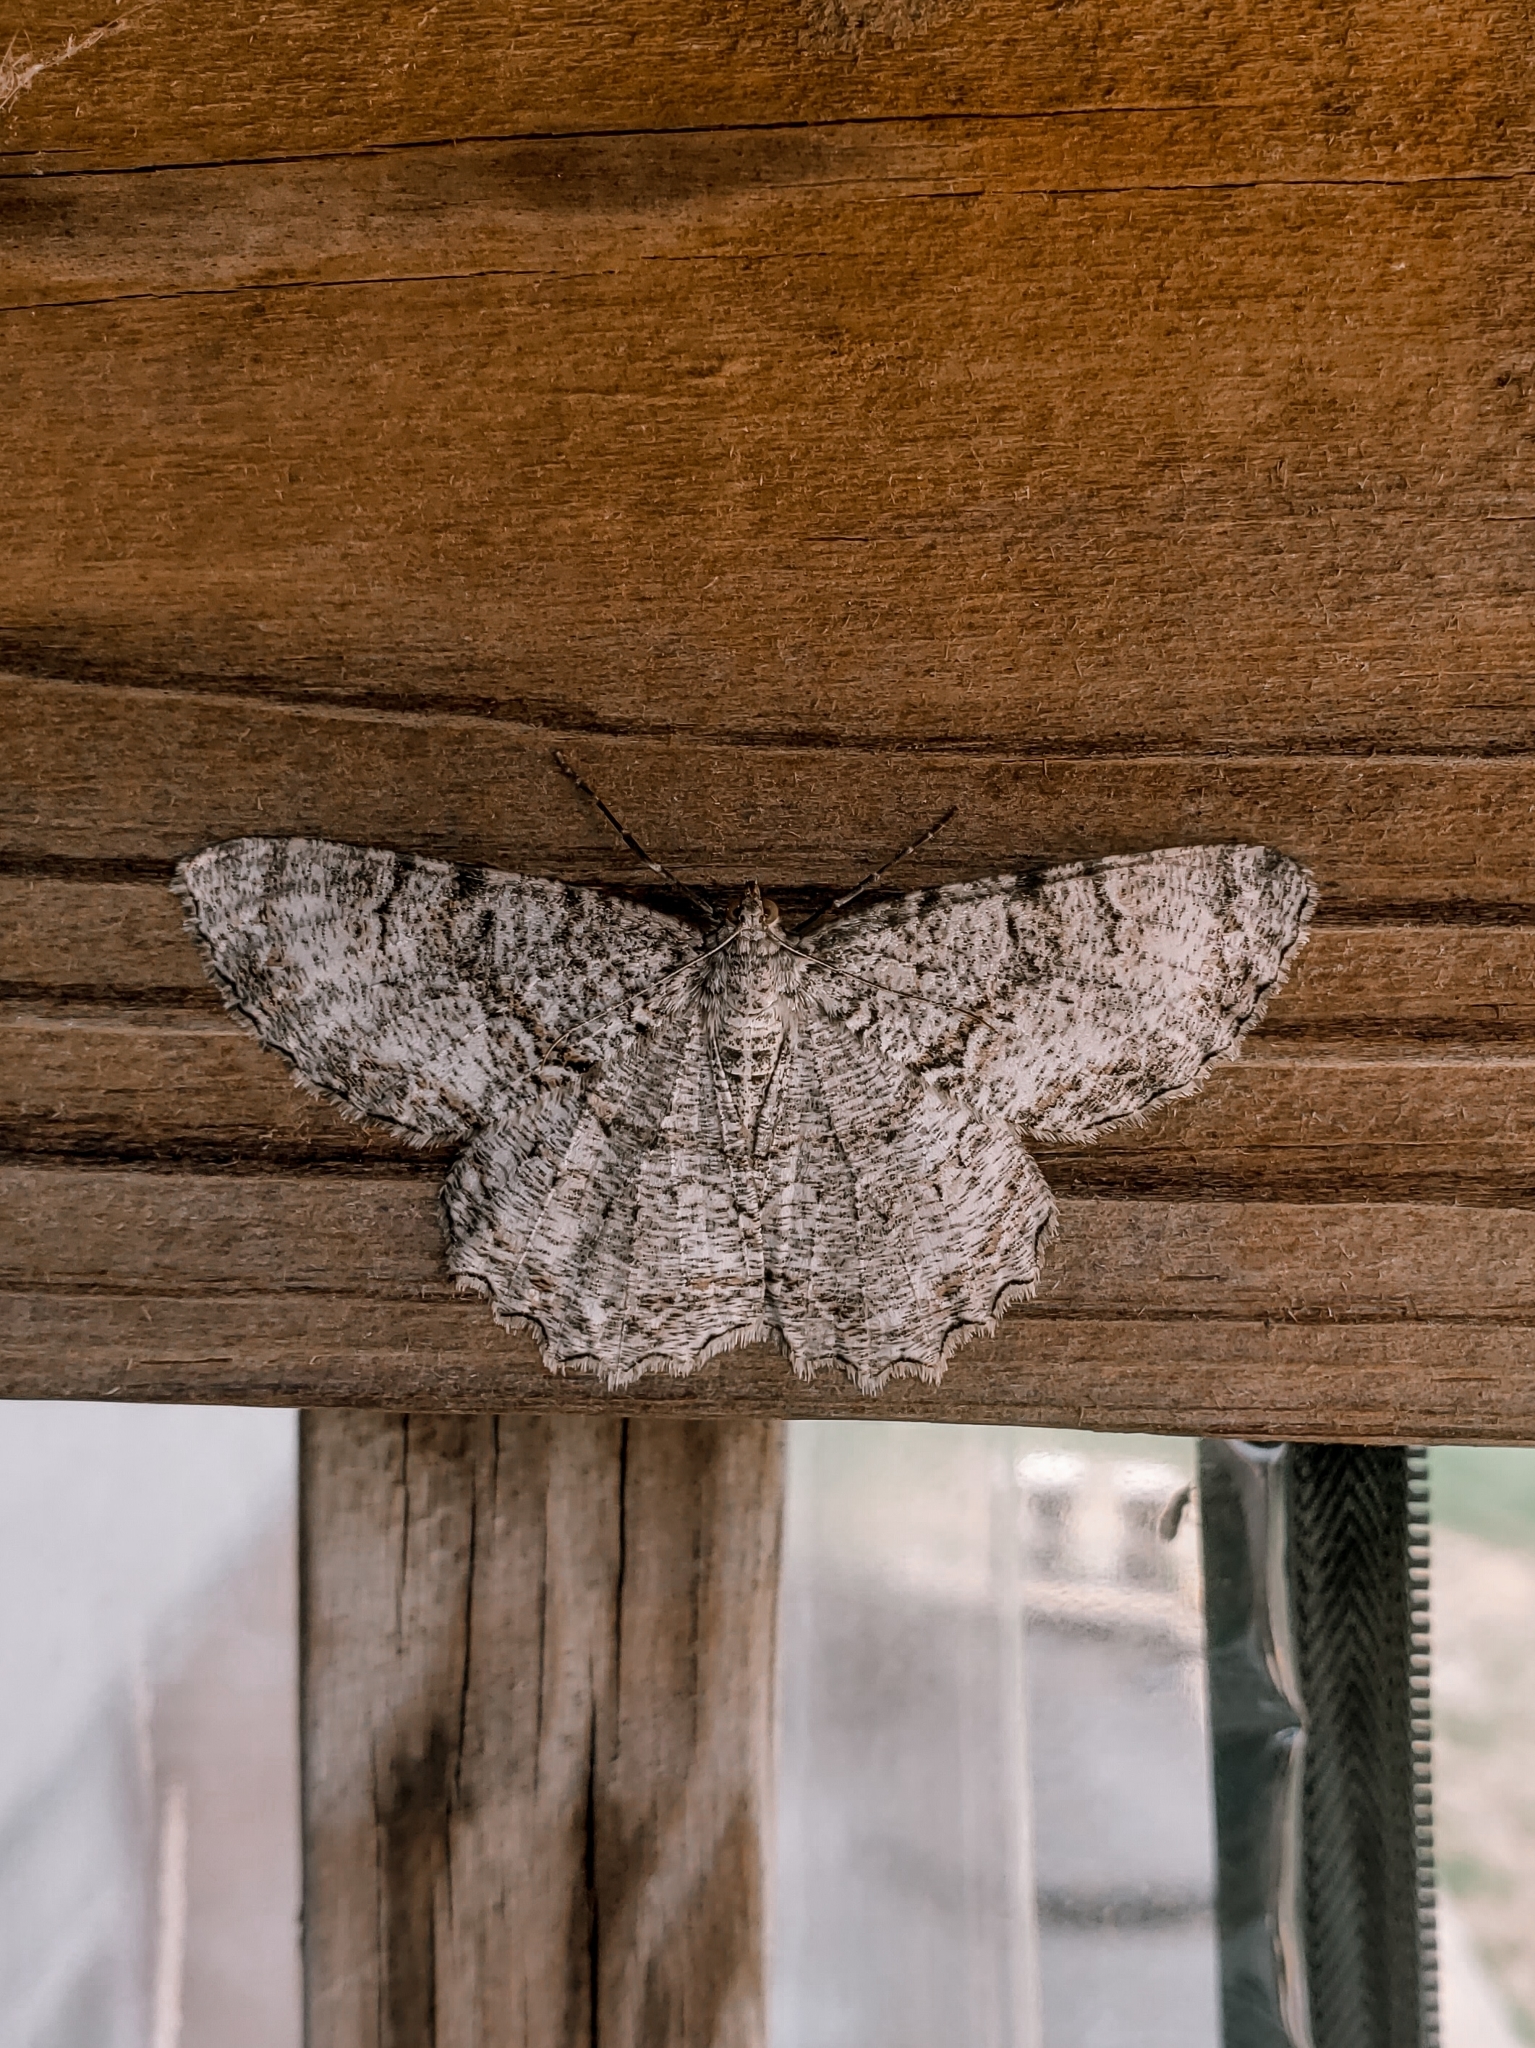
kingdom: Animalia
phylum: Arthropoda
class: Insecta
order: Lepidoptera
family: Geometridae
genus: Epimecis
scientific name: Epimecis hortaria
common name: Tulip-tree beauty
